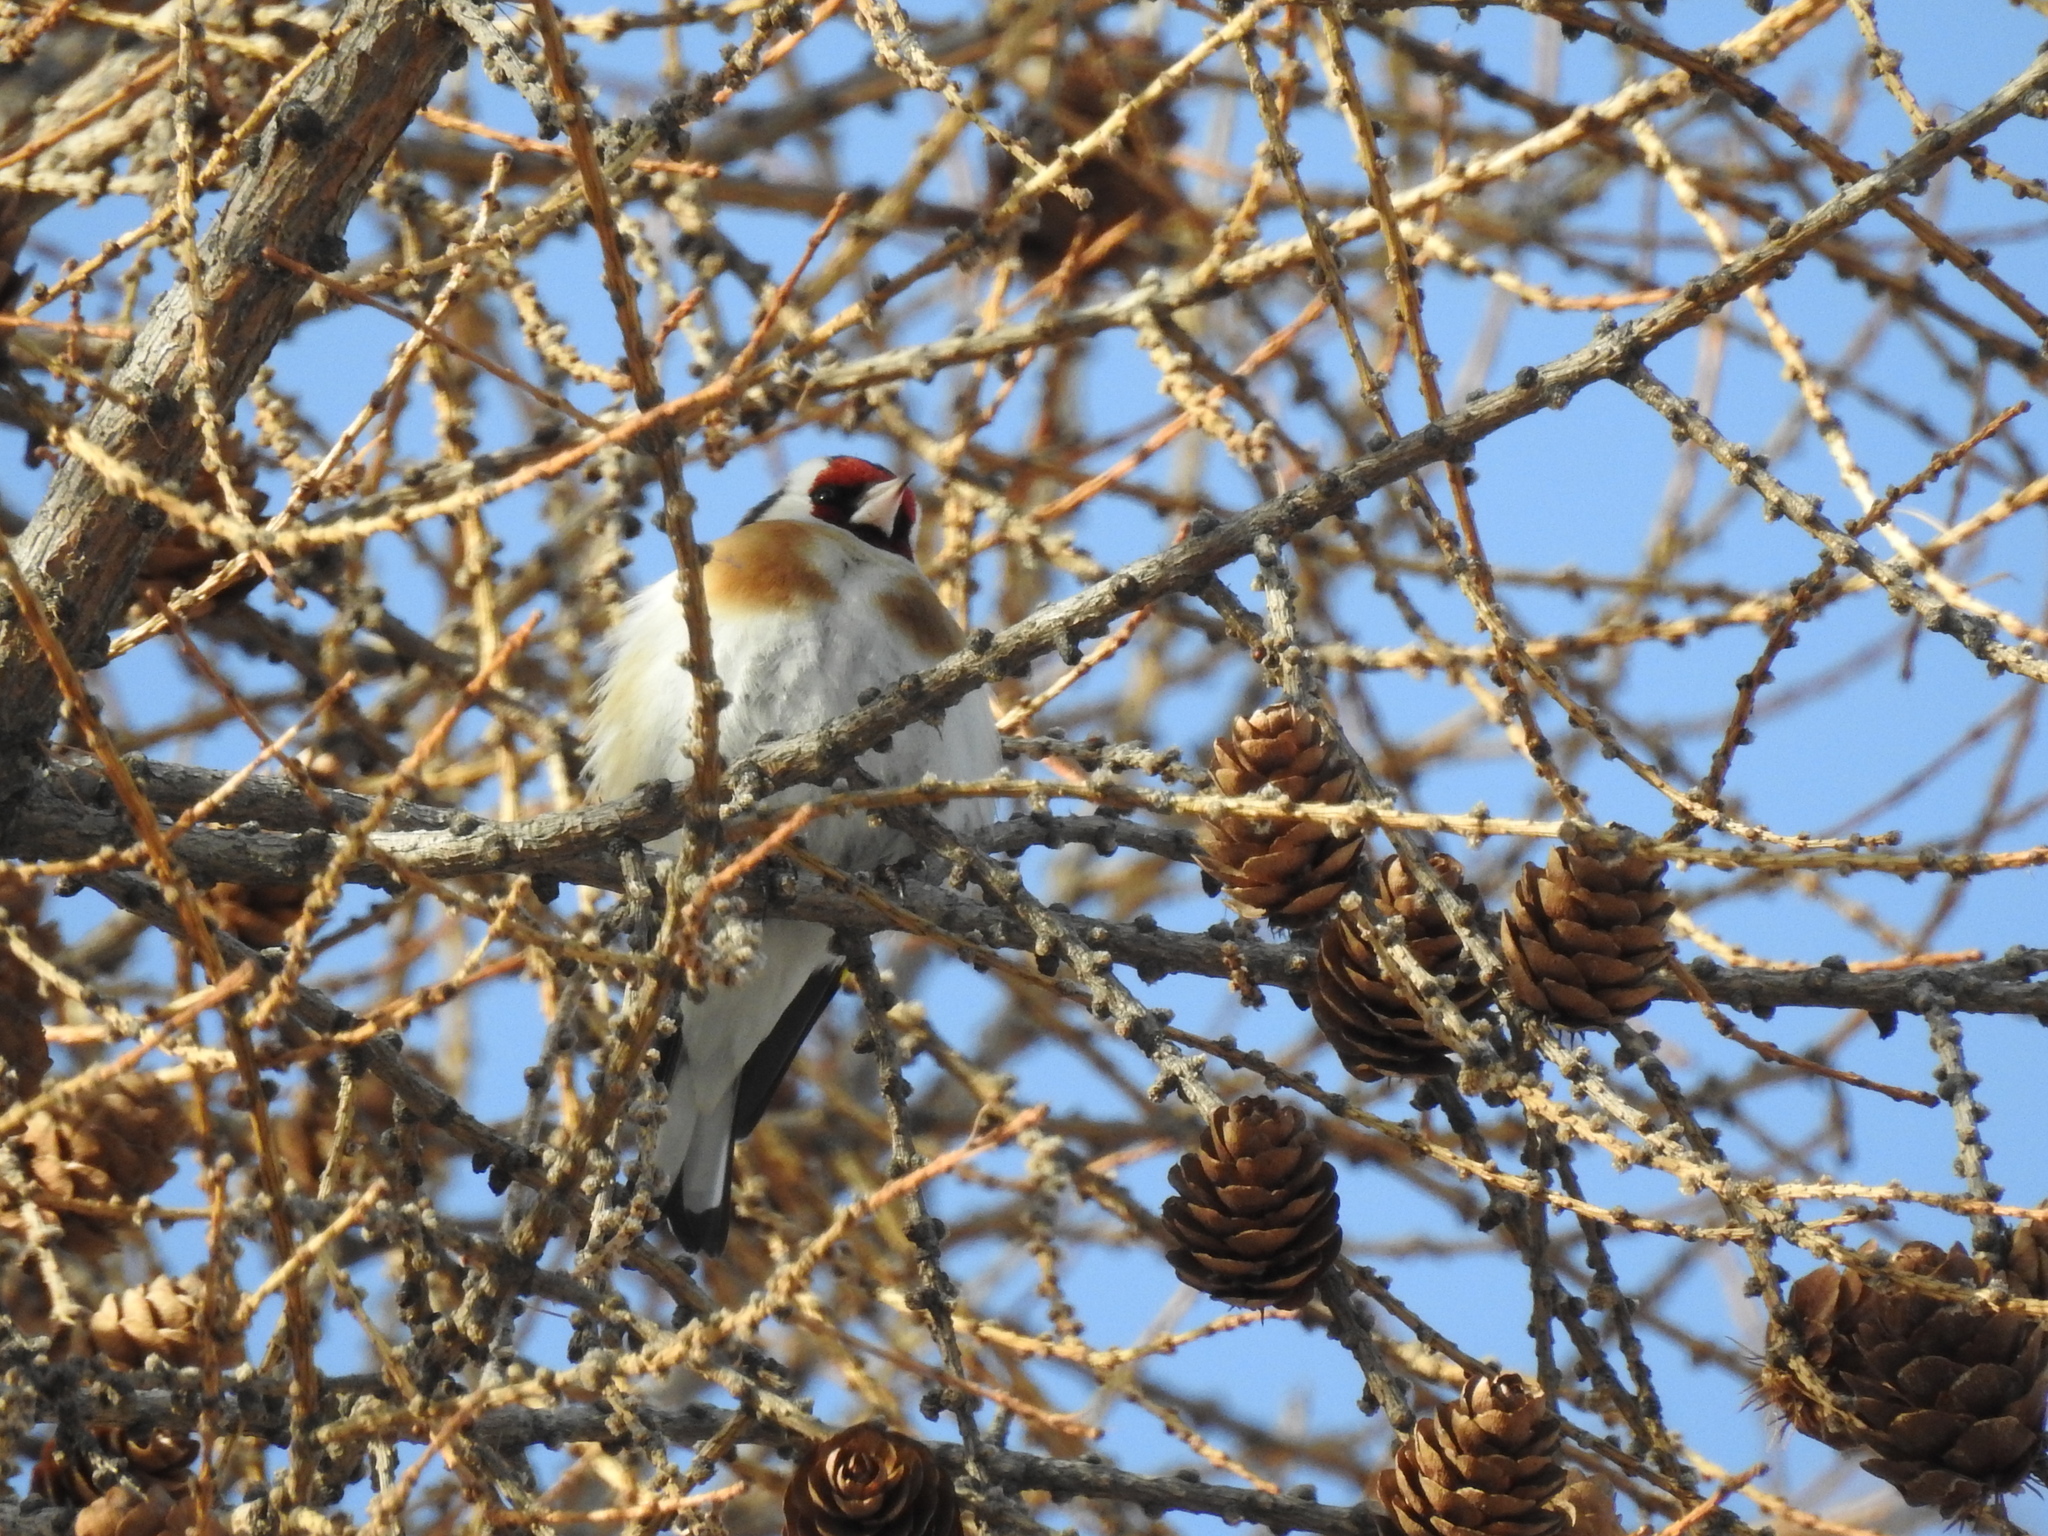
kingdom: Animalia
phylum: Chordata
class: Aves
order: Passeriformes
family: Fringillidae
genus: Carduelis
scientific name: Carduelis carduelis
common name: European goldfinch
